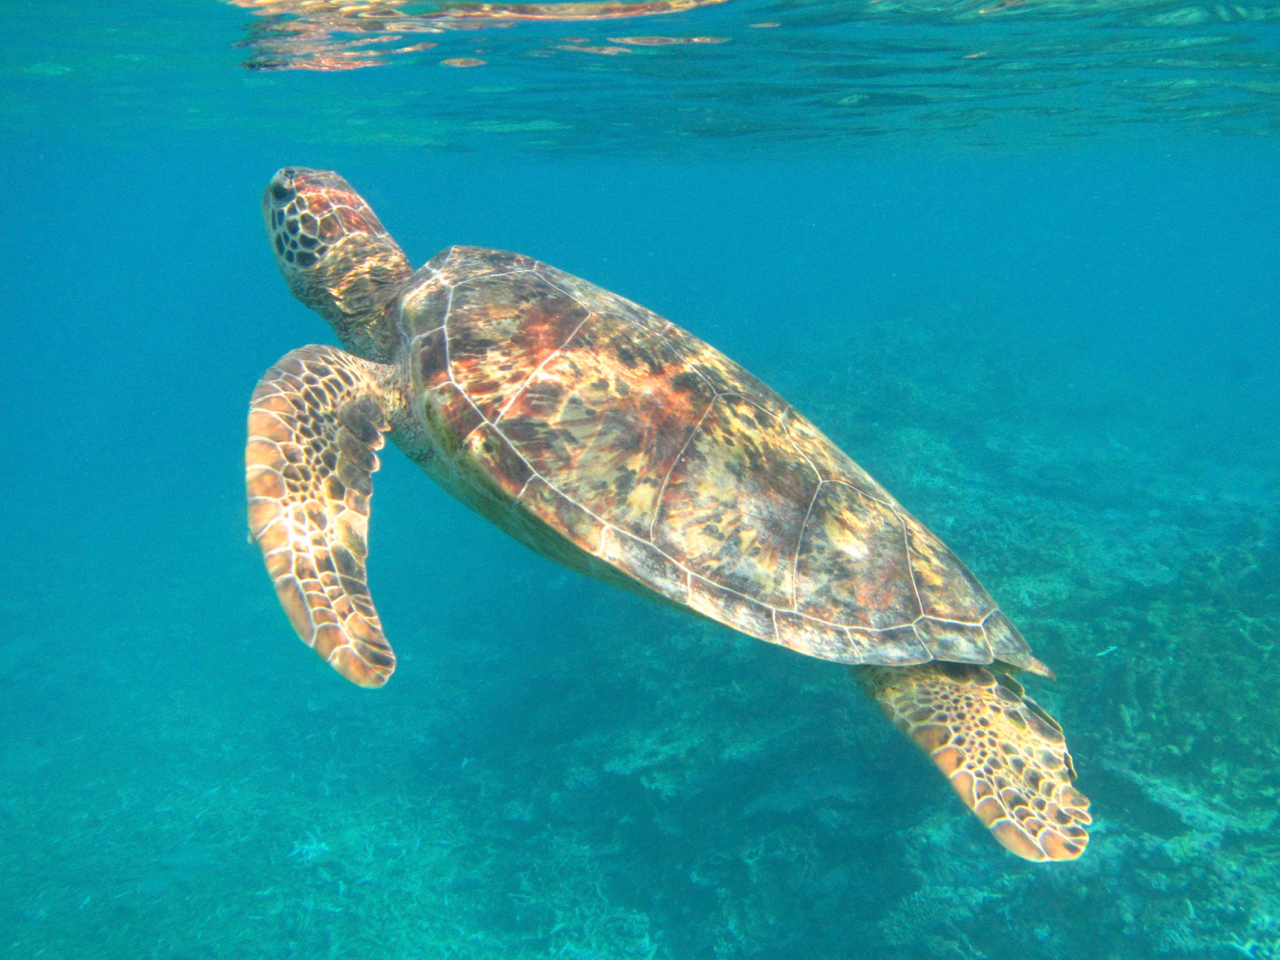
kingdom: Animalia
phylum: Chordata
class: Testudines
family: Cheloniidae
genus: Chelonia
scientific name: Chelonia mydas
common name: Green turtle
